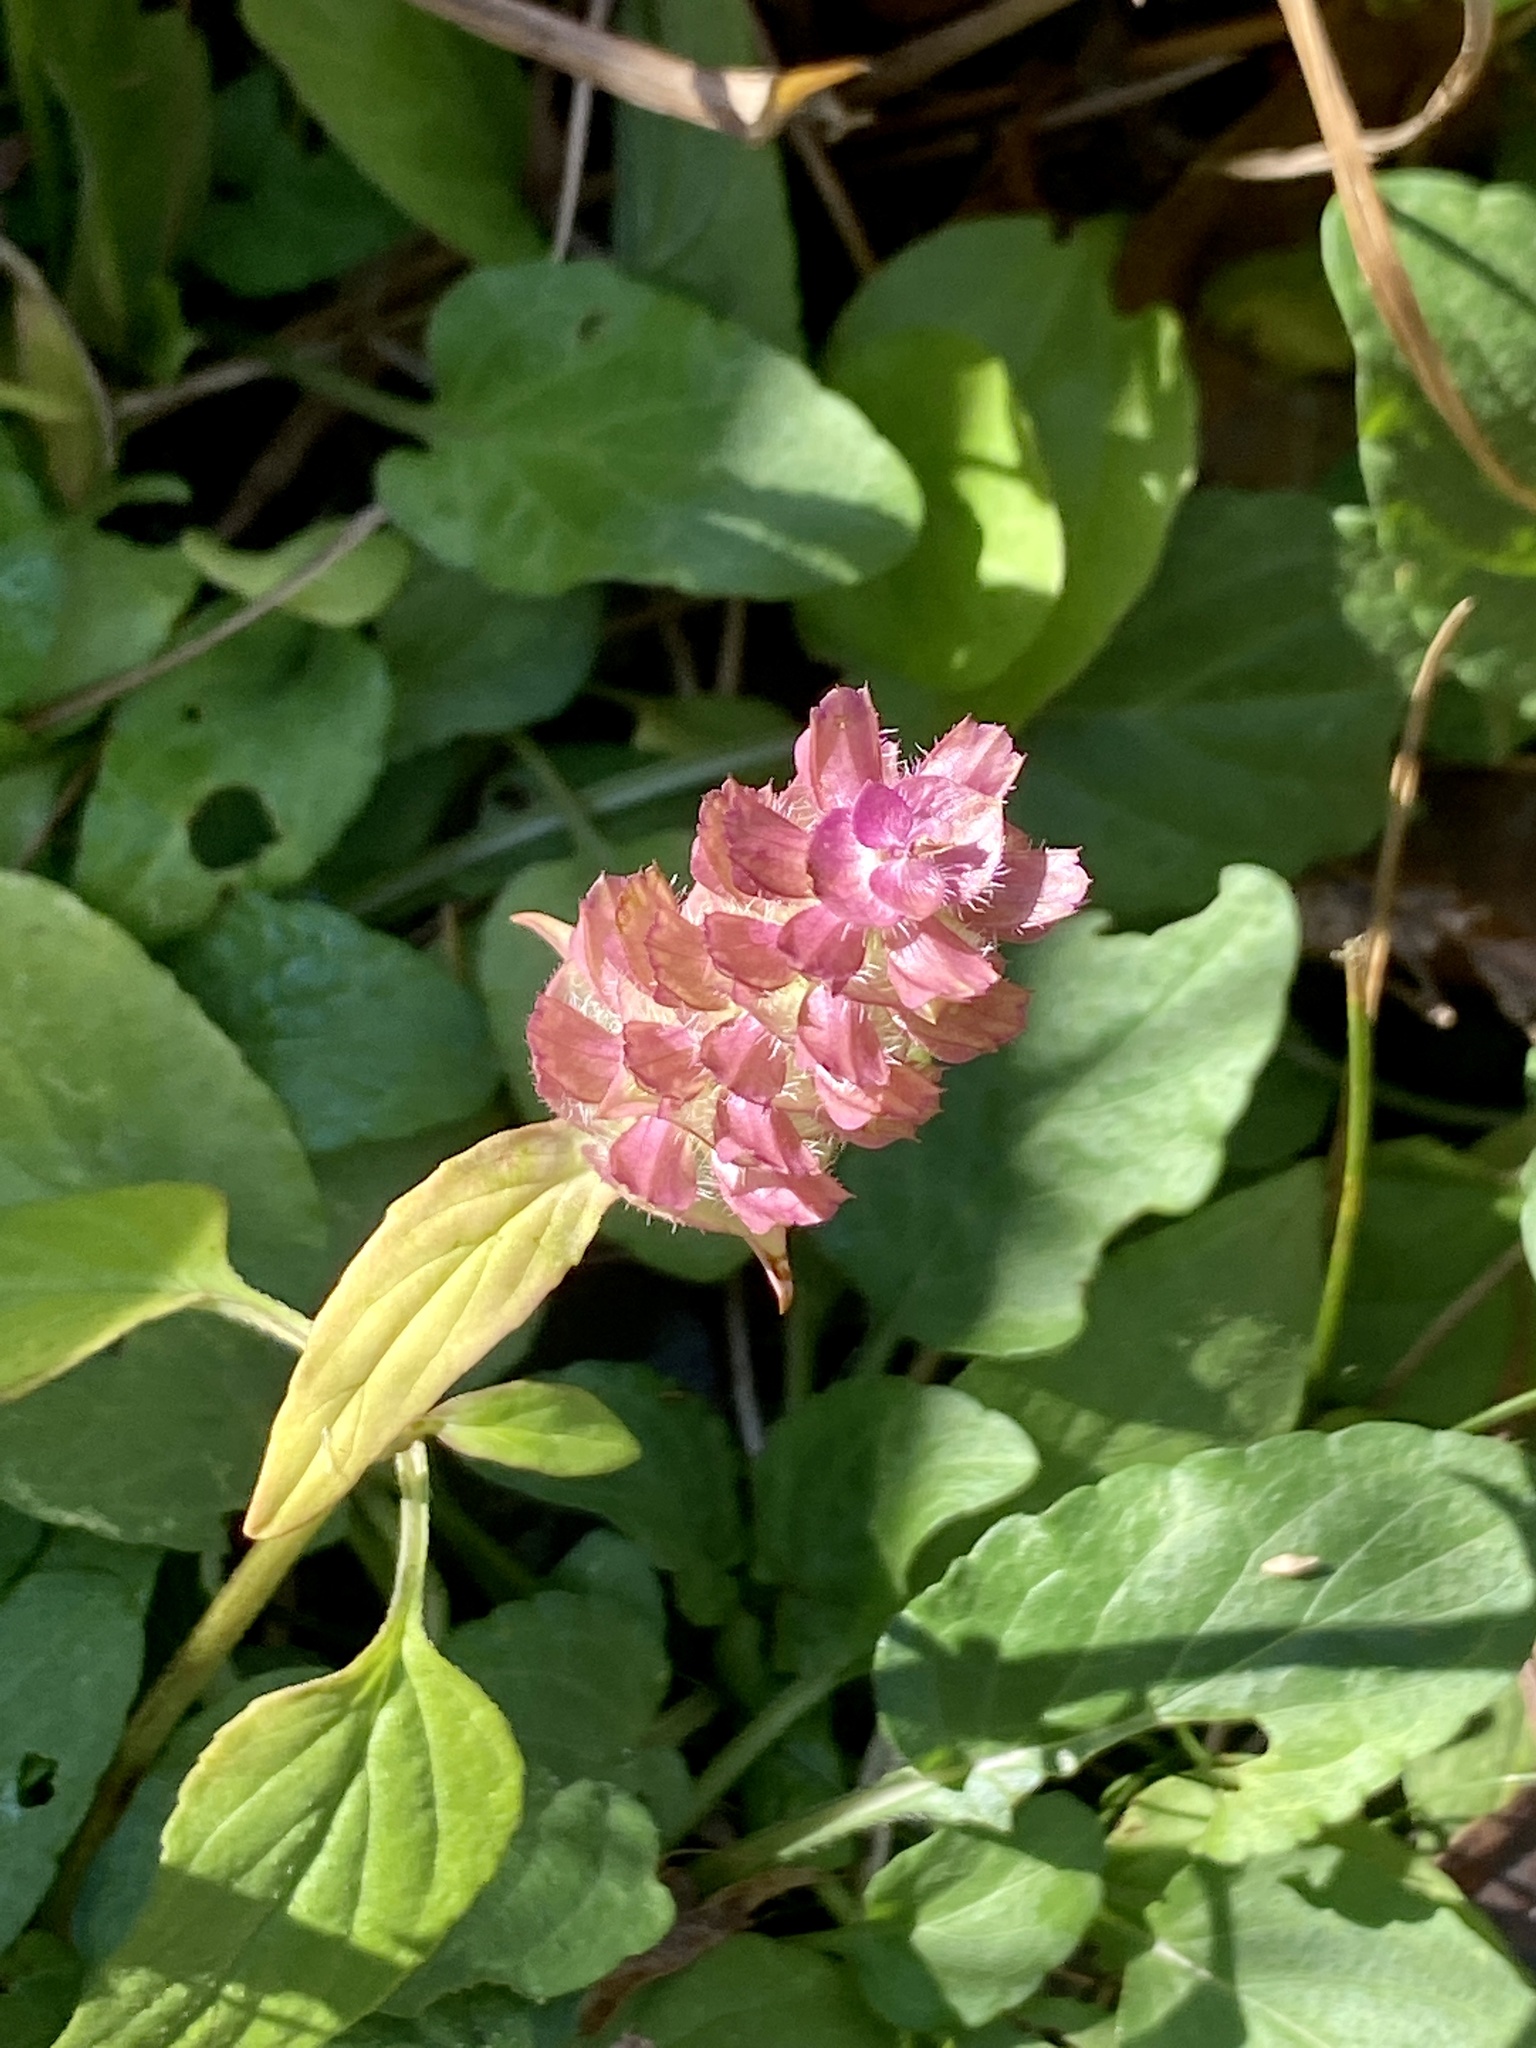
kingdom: Plantae
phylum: Tracheophyta
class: Magnoliopsida
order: Lamiales
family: Lamiaceae
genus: Prunella
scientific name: Prunella vulgaris
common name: Heal-all
